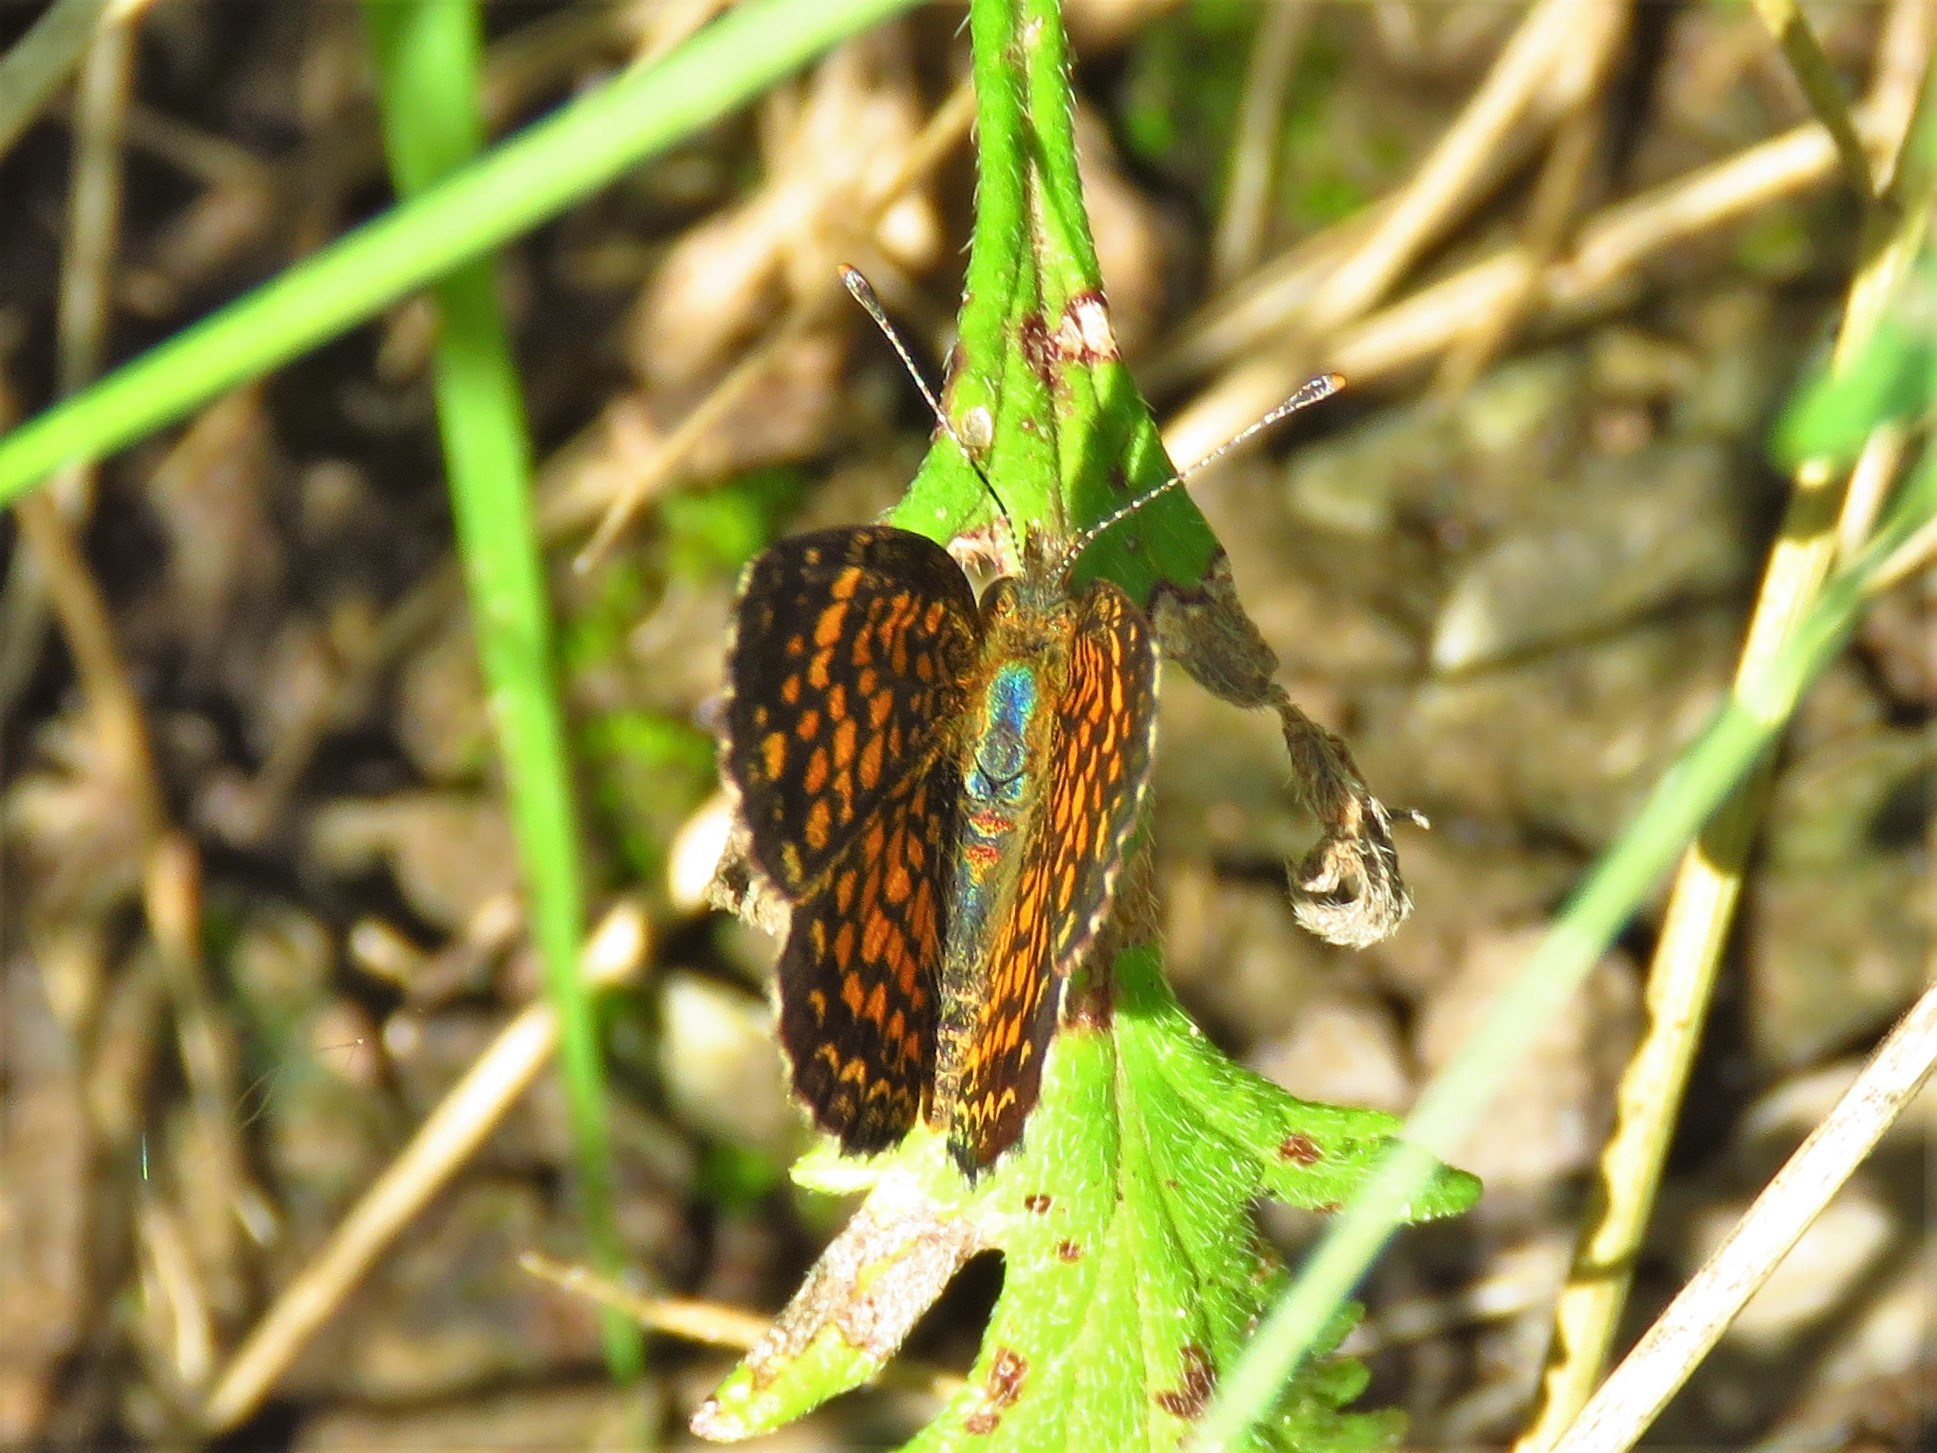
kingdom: Animalia
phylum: Arthropoda
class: Insecta
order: Lepidoptera
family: Nymphalidae
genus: Phyciodes
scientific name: Phyciodes vesta
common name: Vesta crescent
